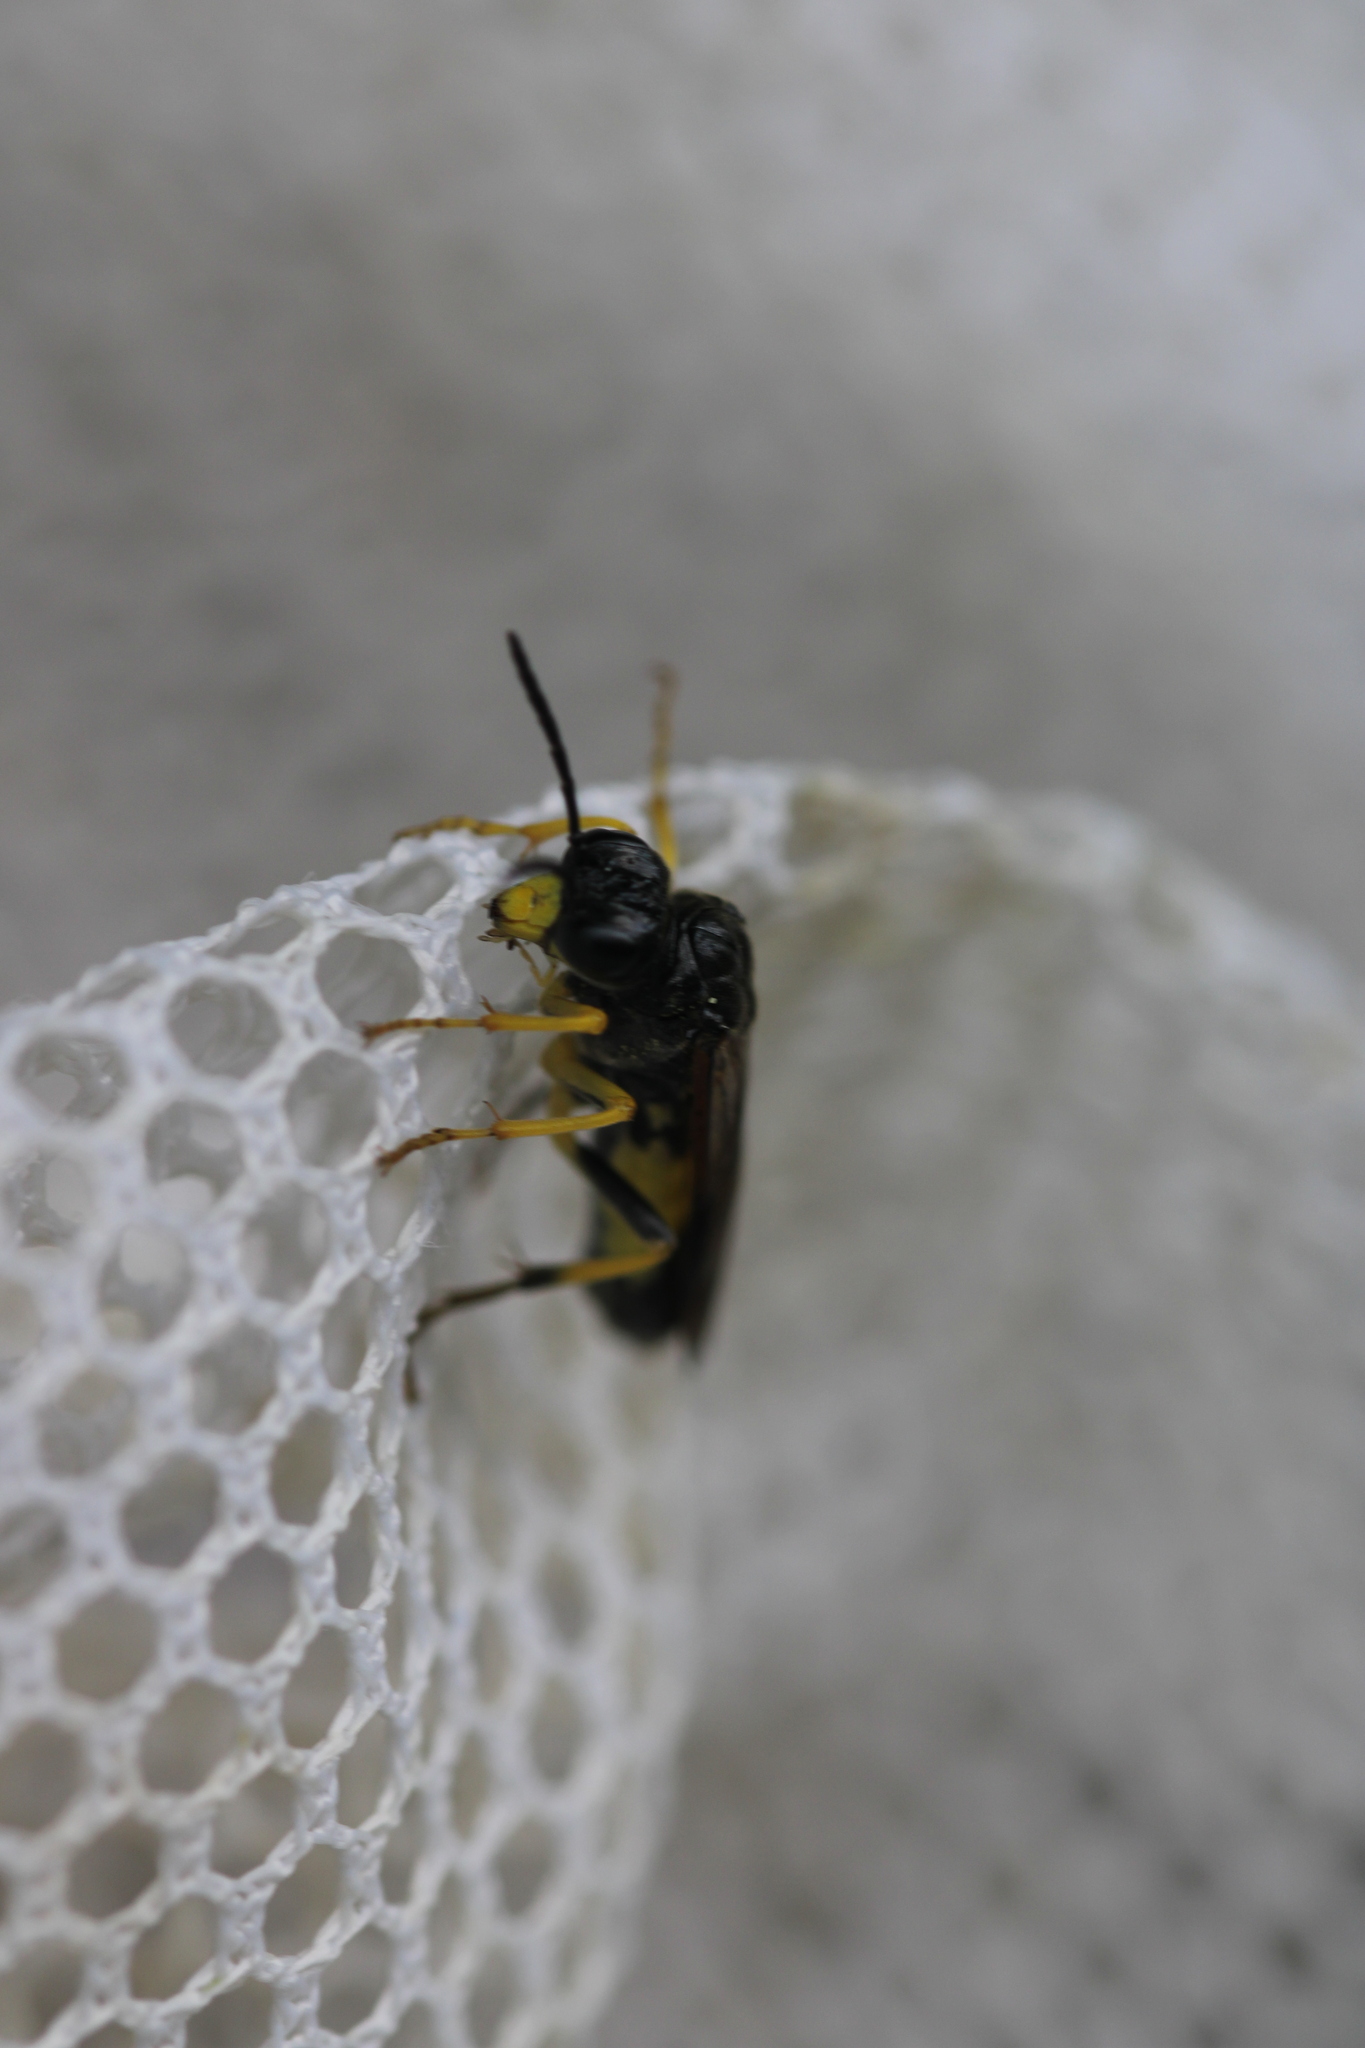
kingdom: Animalia
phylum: Arthropoda
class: Insecta
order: Hymenoptera
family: Tenthredinidae
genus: Tenthredo
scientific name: Tenthredo temula
